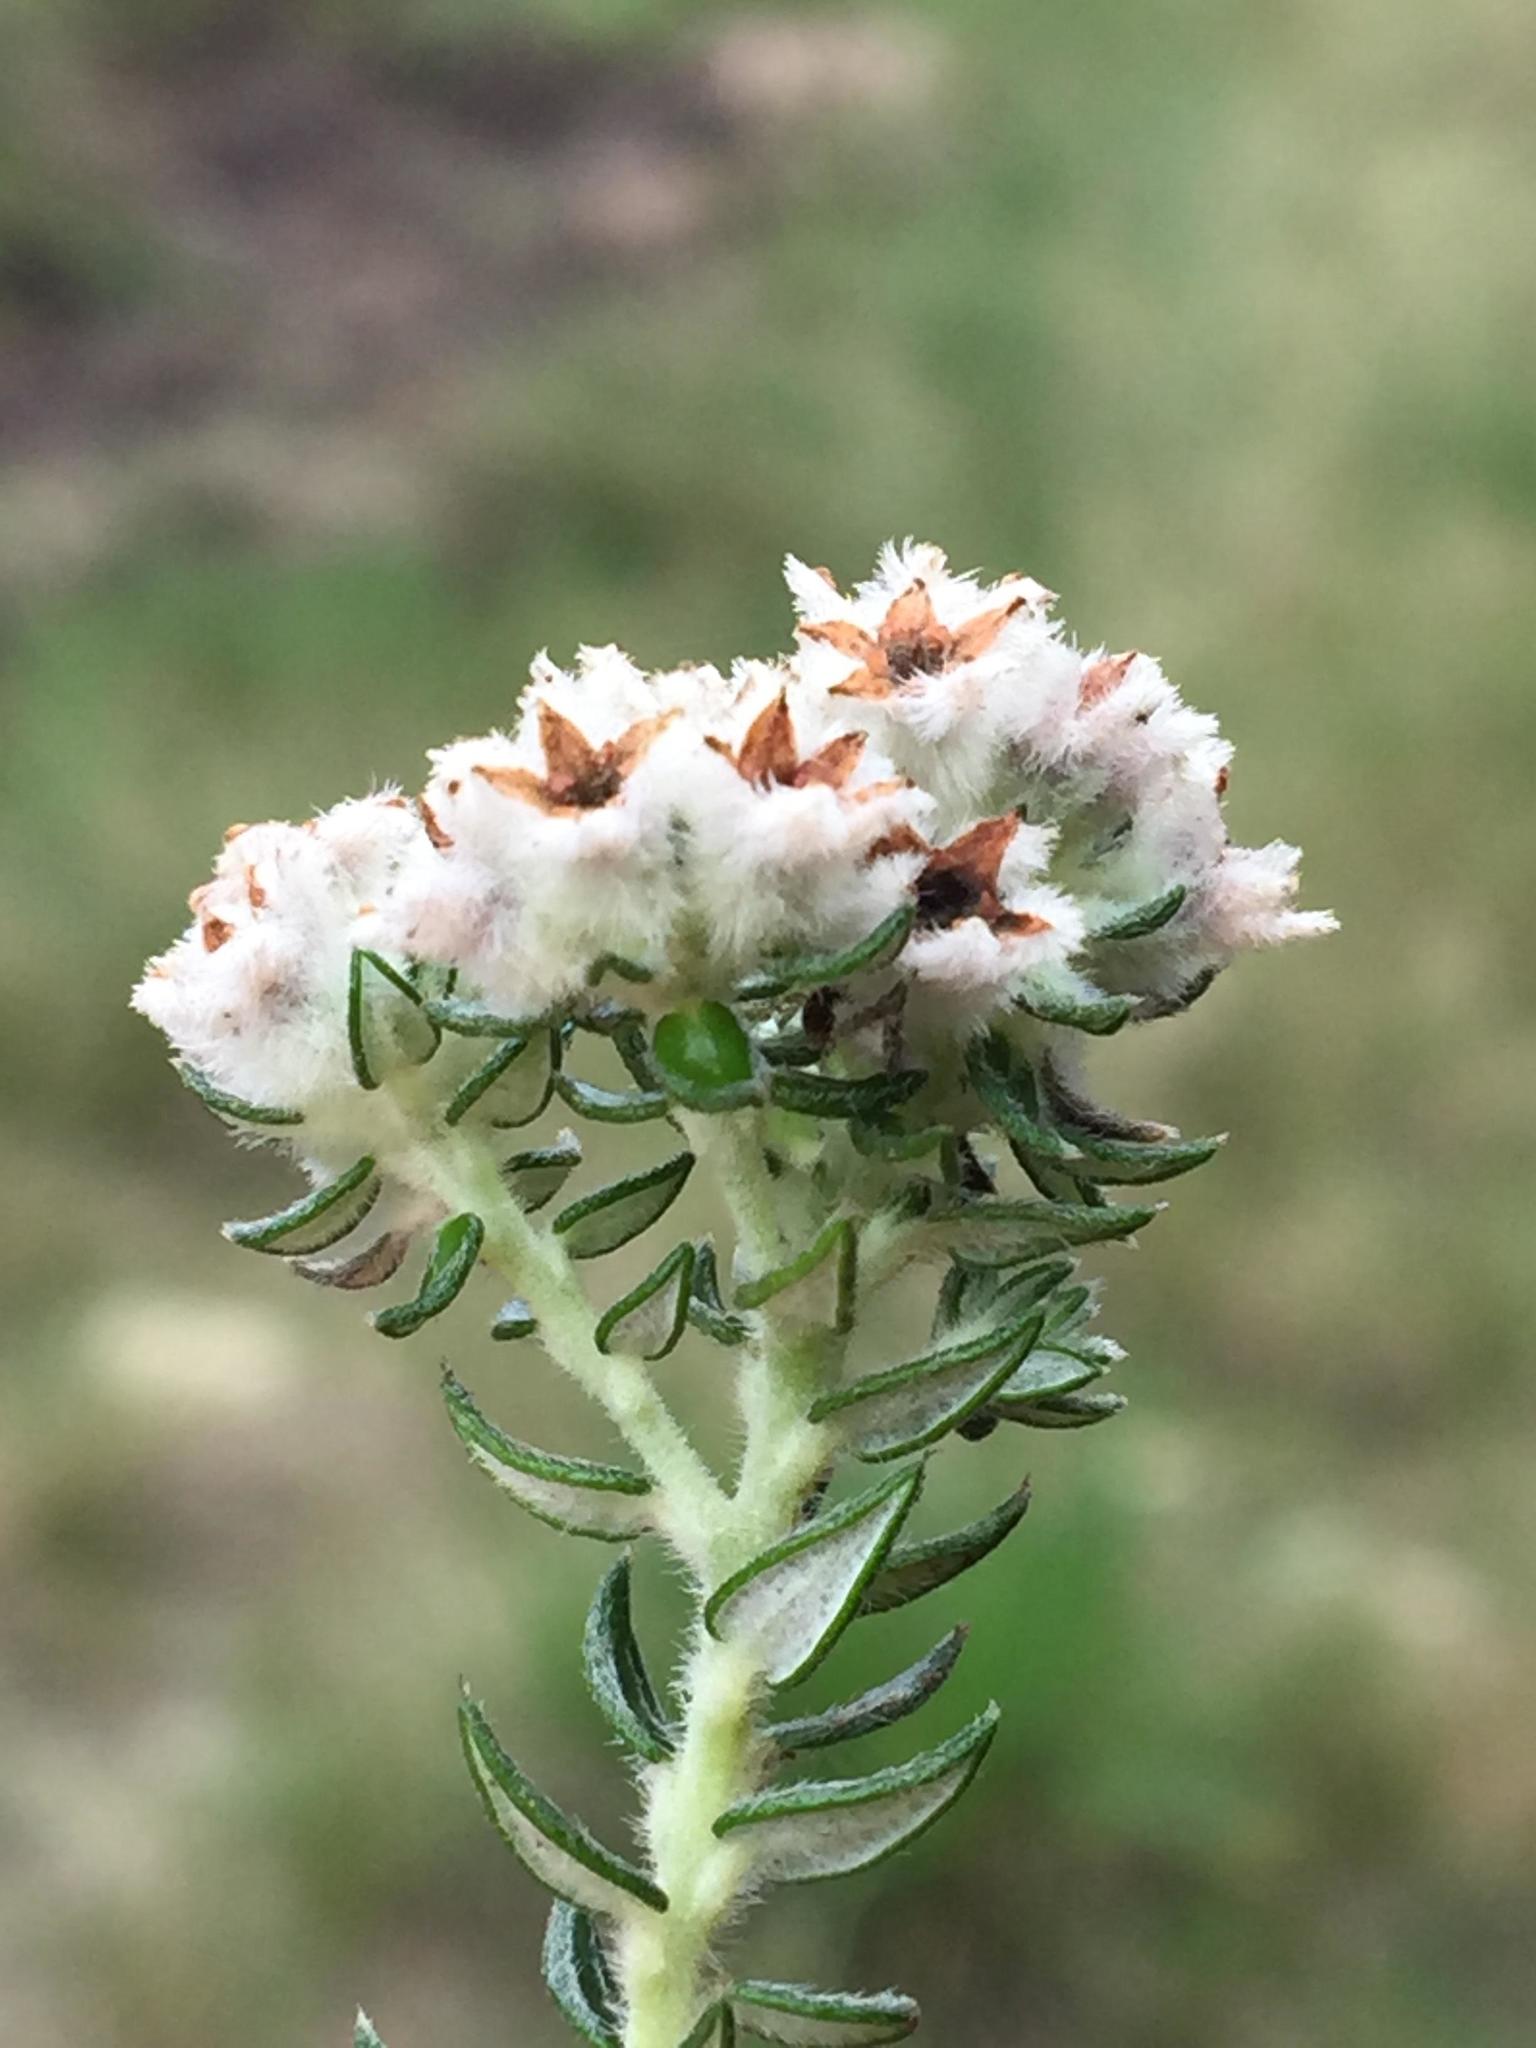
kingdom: Plantae
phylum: Tracheophyta
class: Magnoliopsida
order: Rosales
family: Rhamnaceae
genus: Phylica
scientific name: Phylica purpurea
